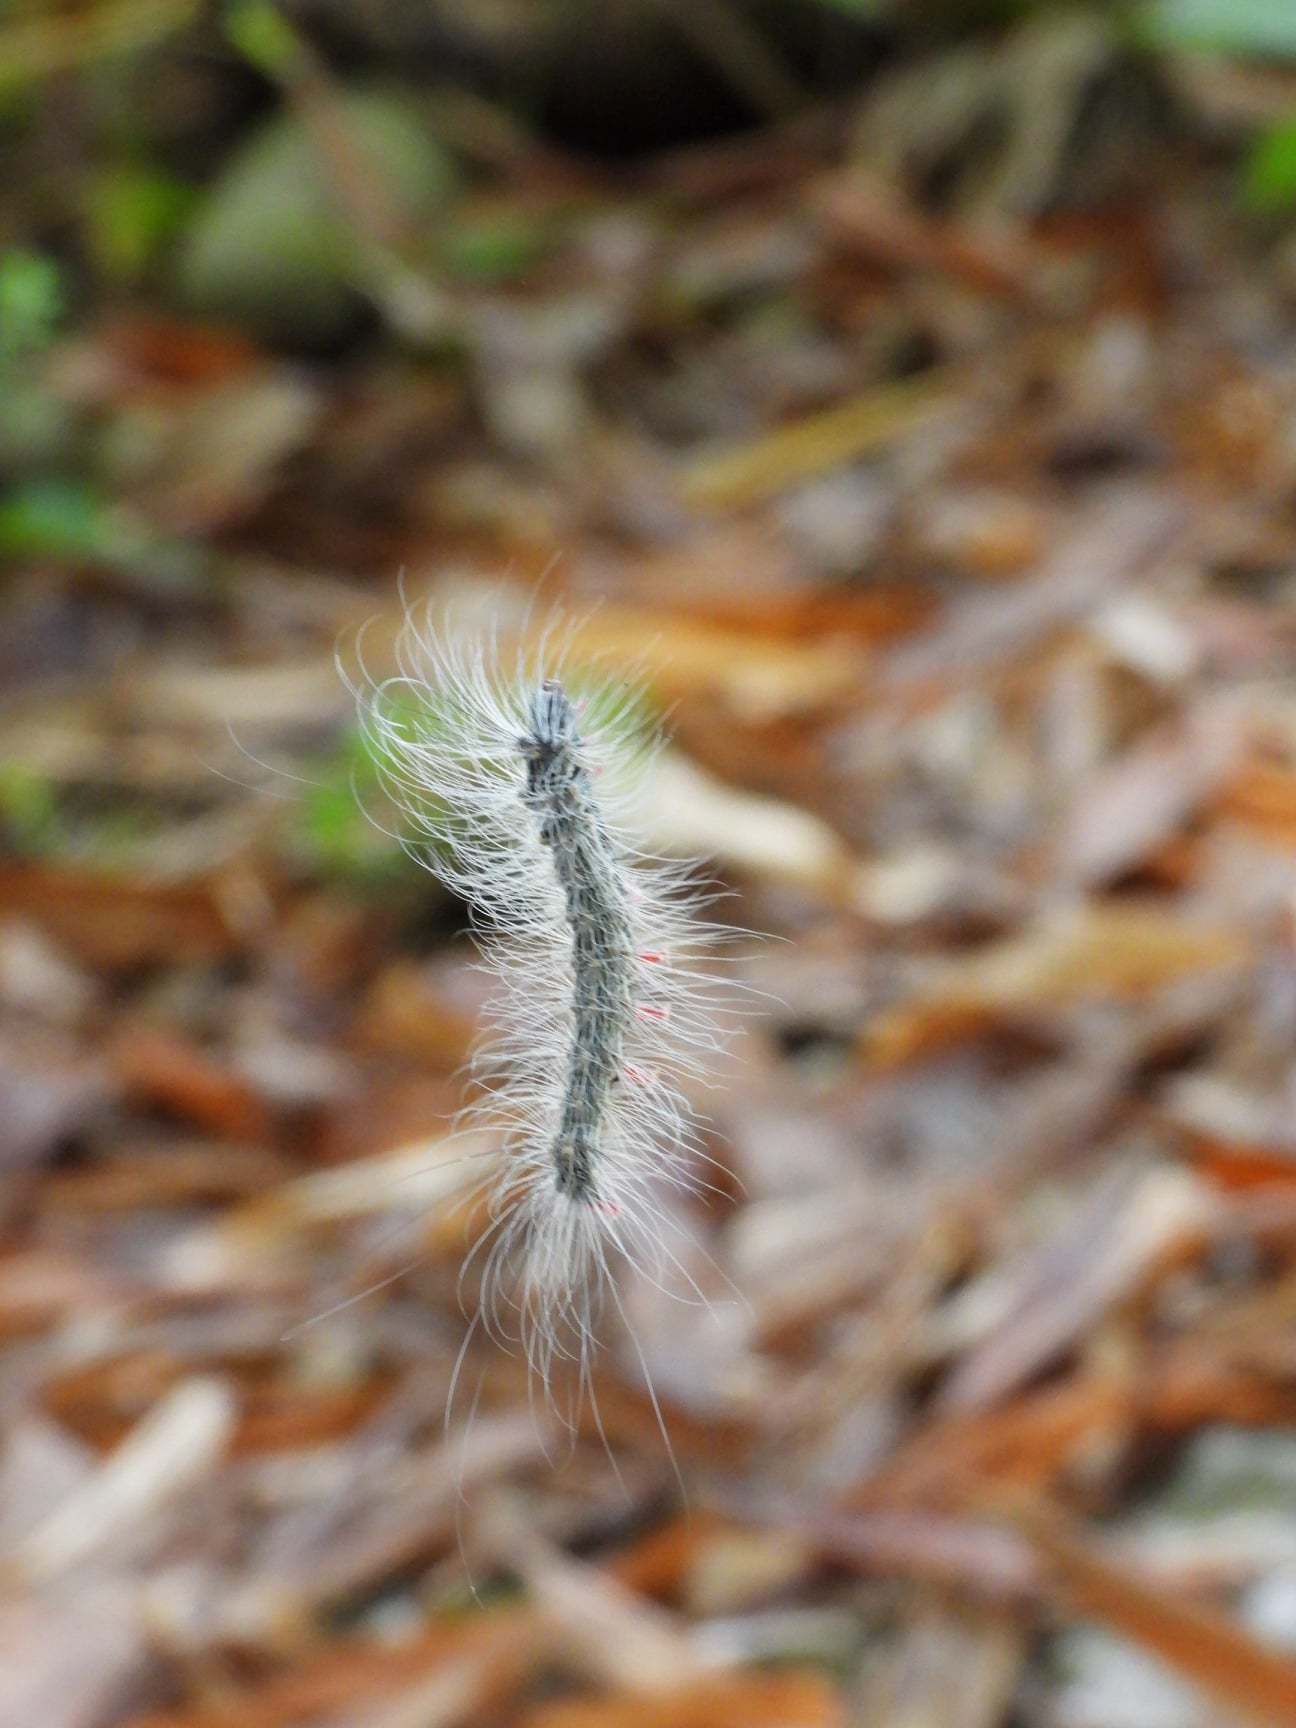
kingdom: Animalia
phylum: Arthropoda
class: Insecta
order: Lepidoptera
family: Erebidae
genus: Chrysaeglia
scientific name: Chrysaeglia magnifica
